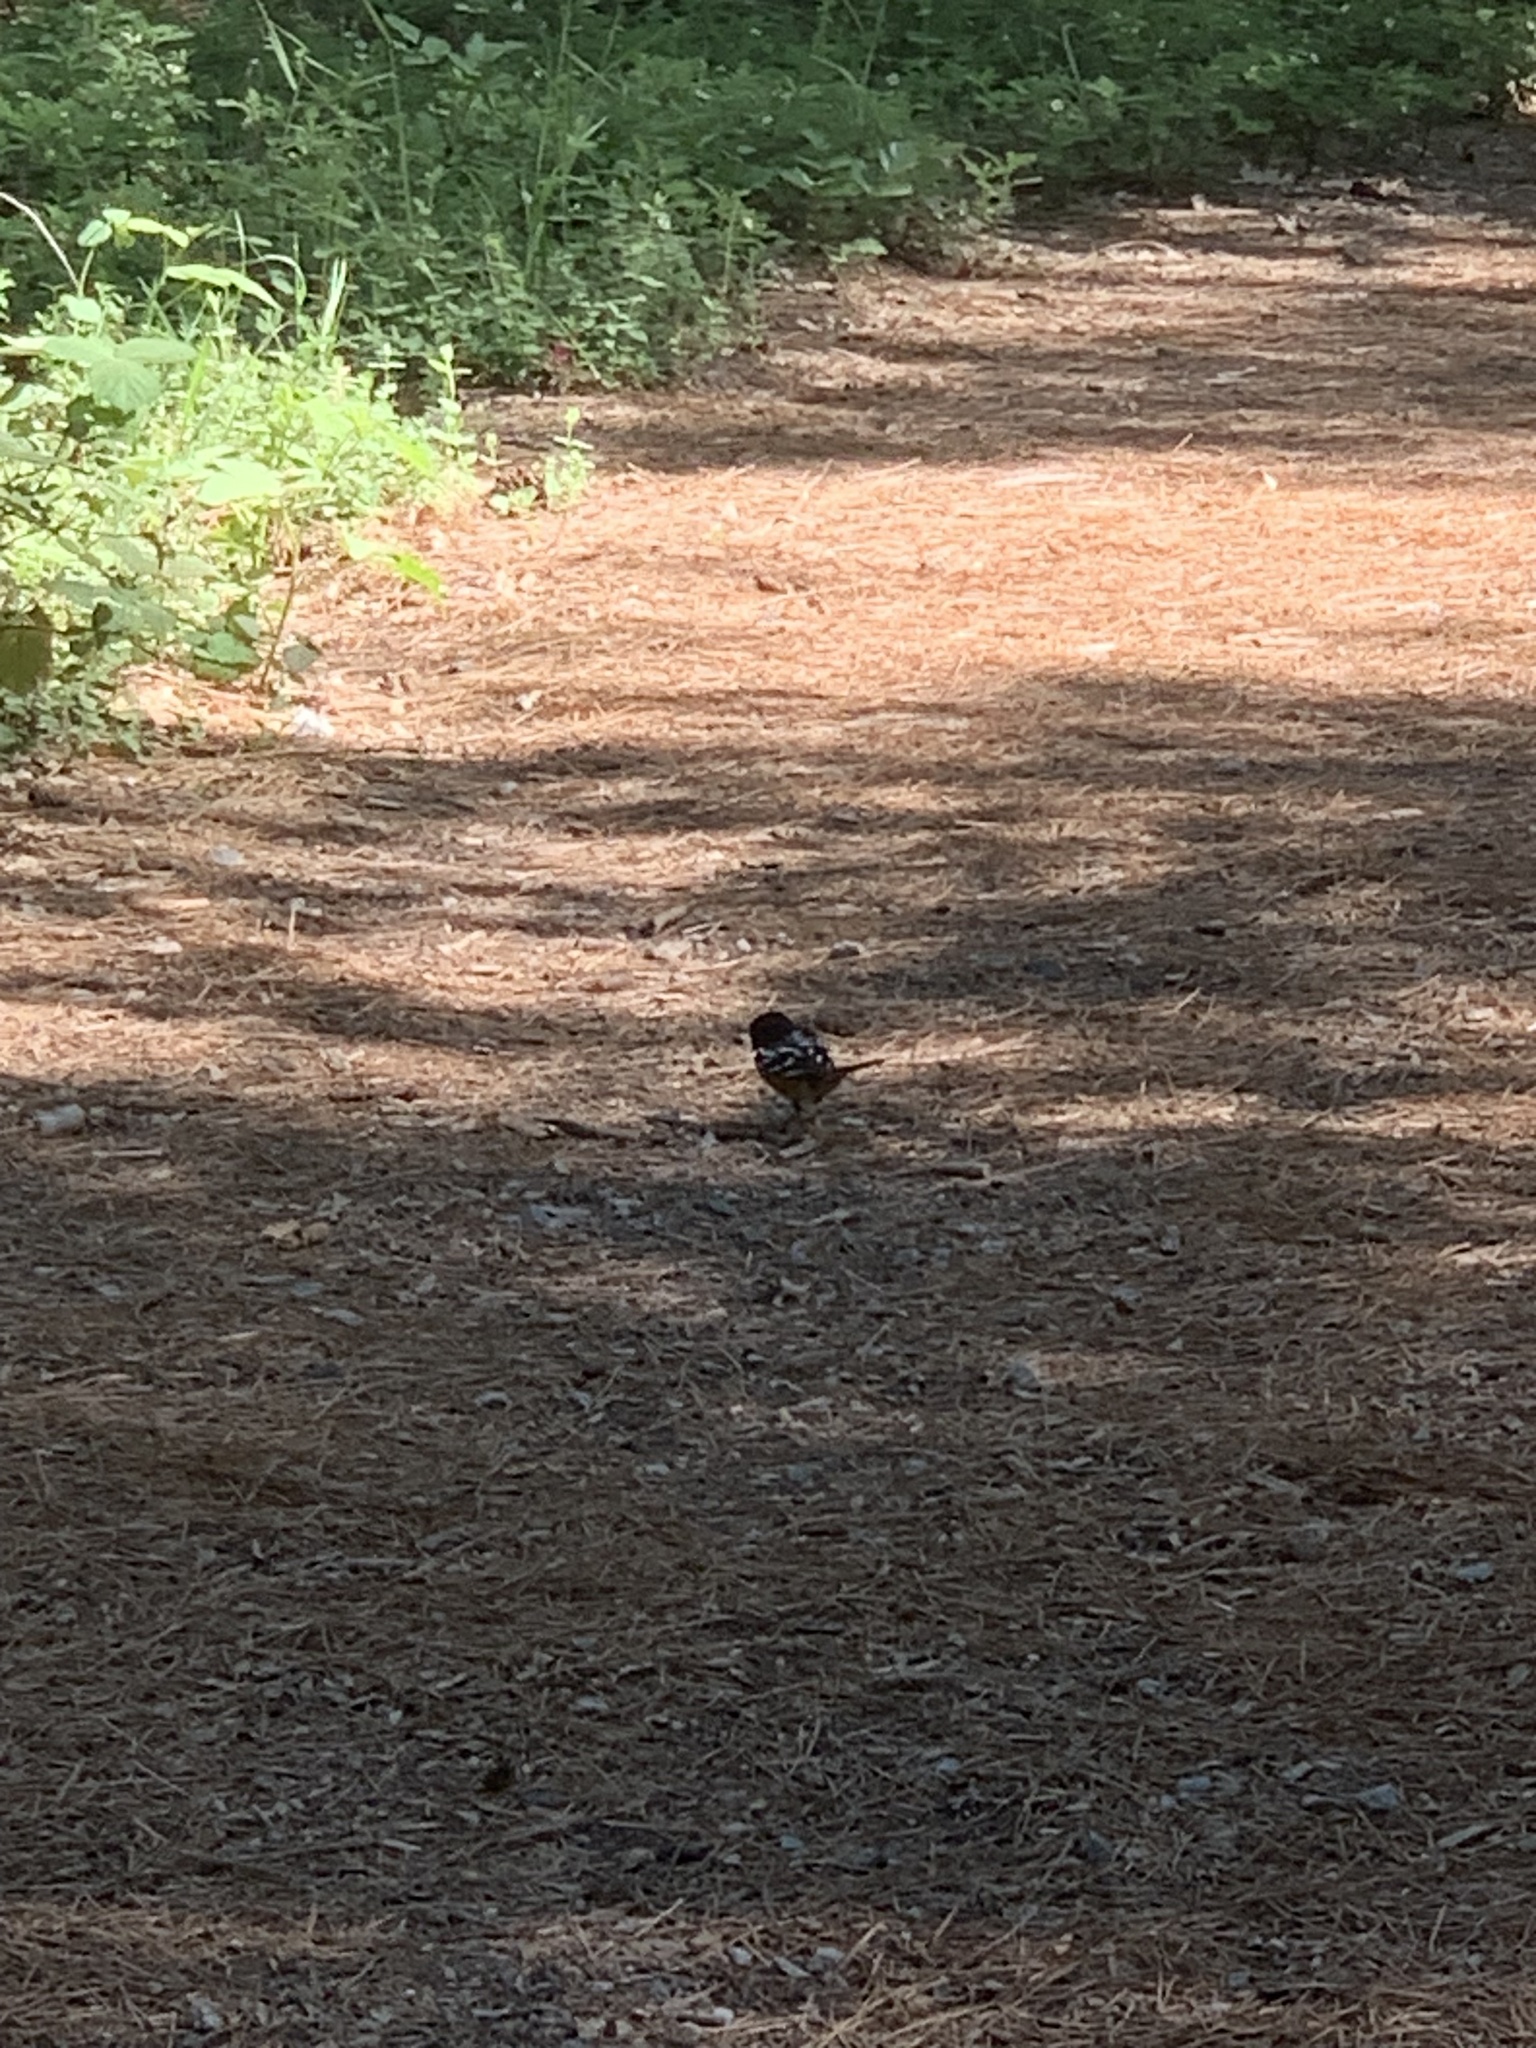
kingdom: Animalia
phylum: Chordata
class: Aves
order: Passeriformes
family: Passerellidae
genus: Pipilo
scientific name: Pipilo maculatus
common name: Spotted towhee
